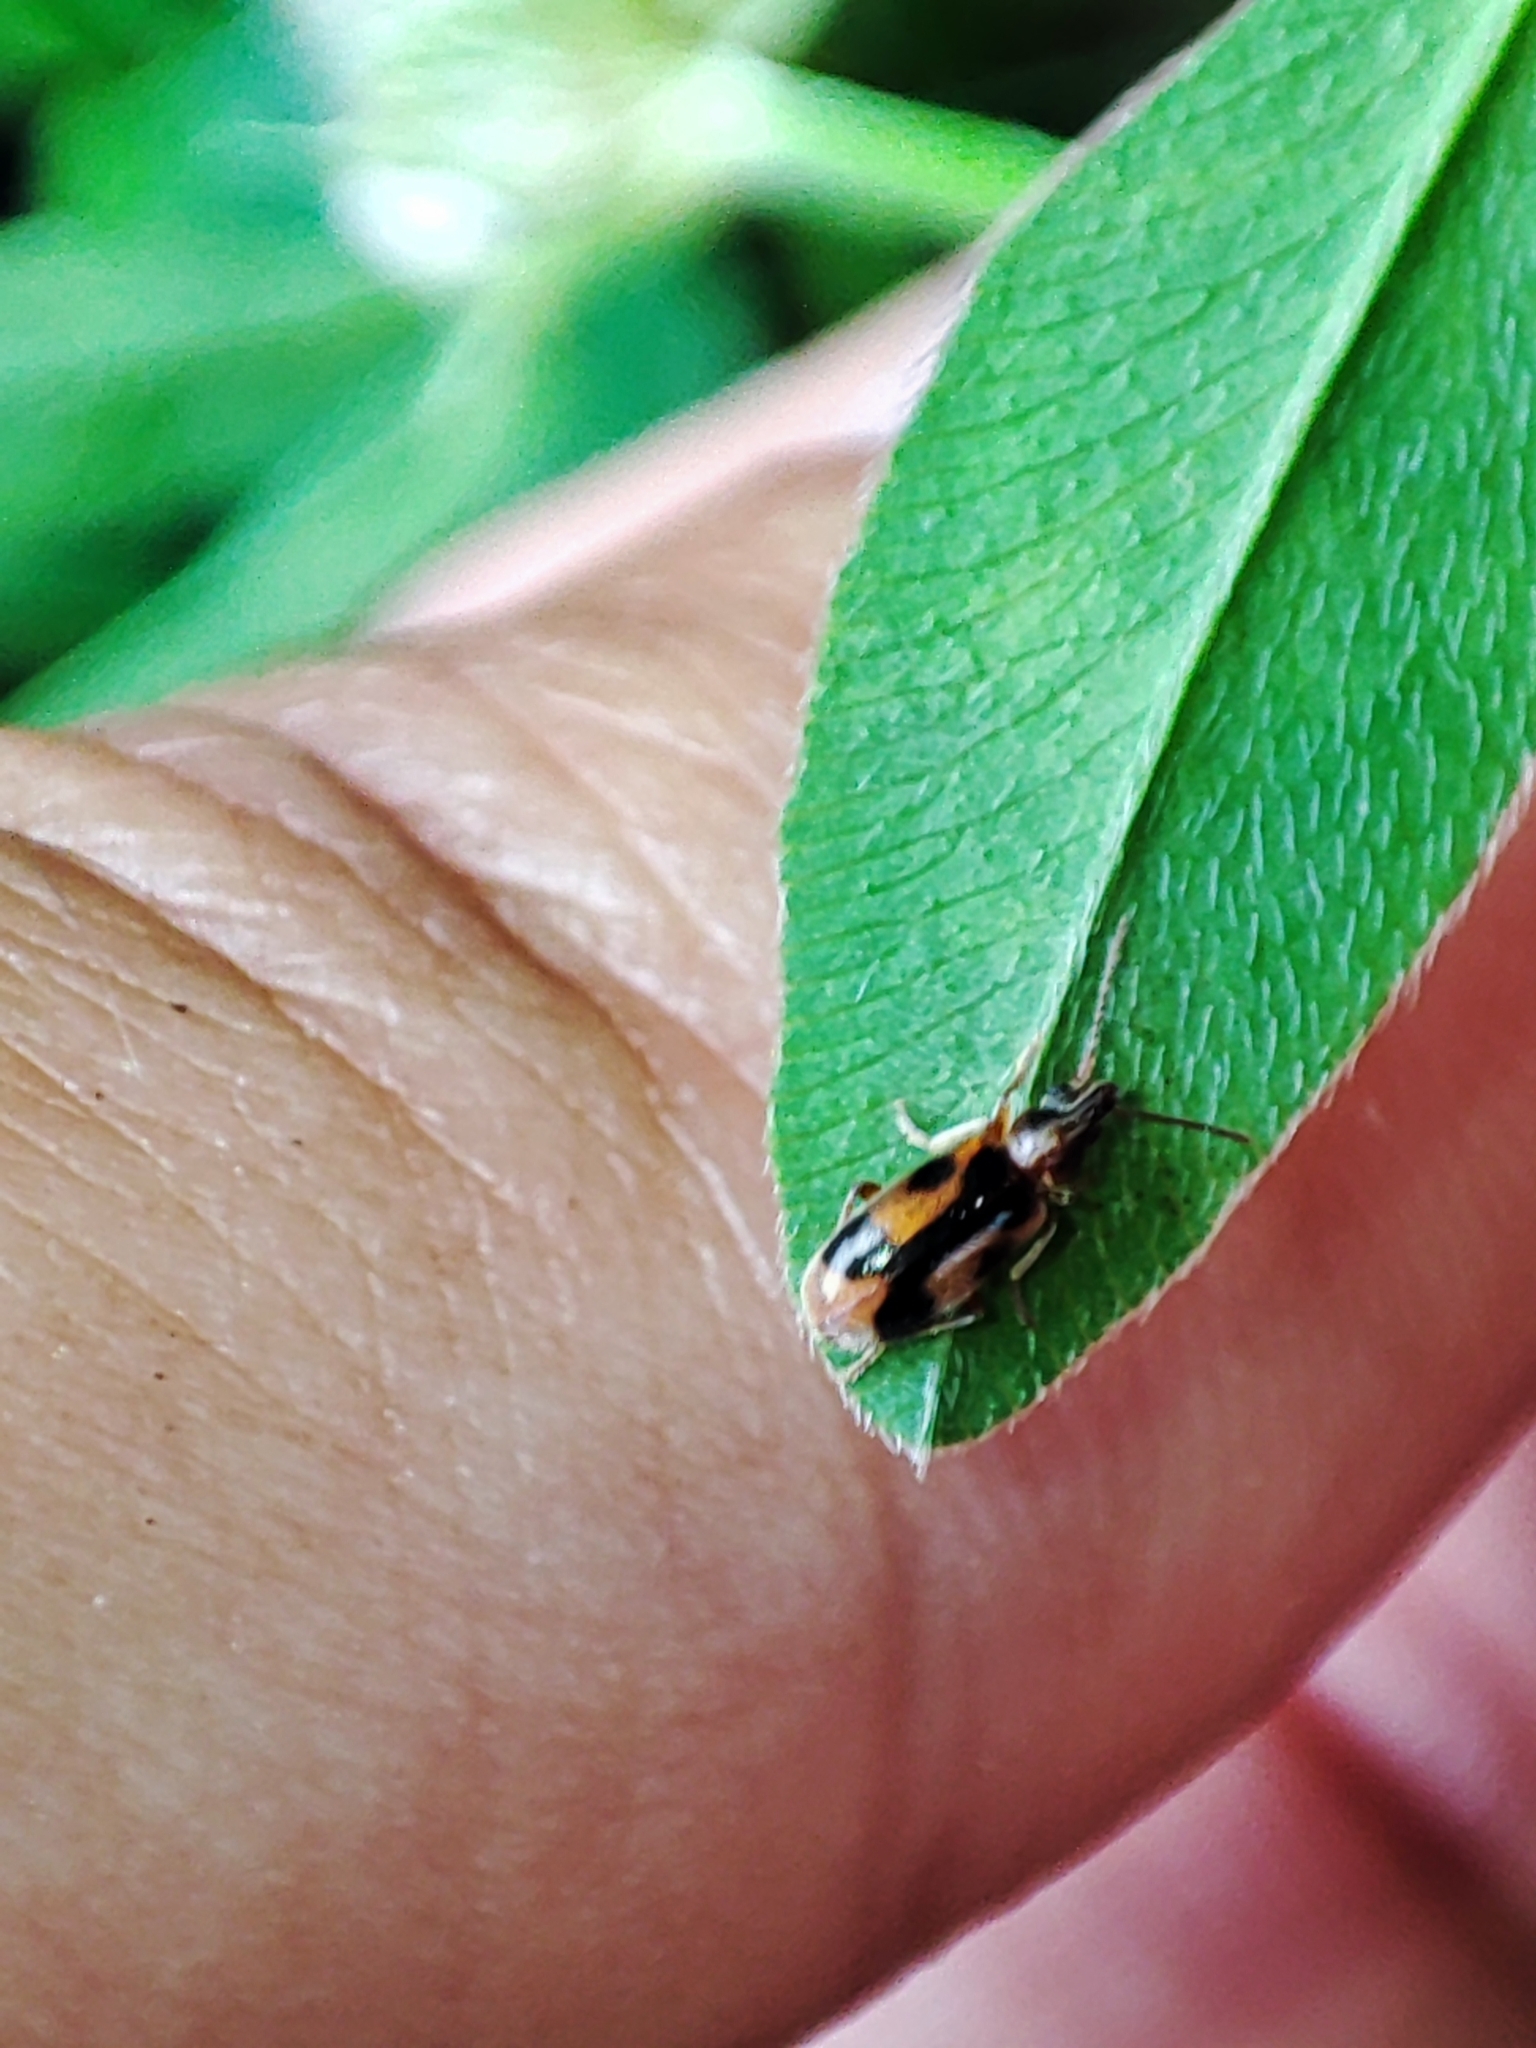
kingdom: Animalia
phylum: Arthropoda
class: Insecta
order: Coleoptera
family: Anthicidae
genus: Notoxus
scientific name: Notoxus monoceros
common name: Monoceros beetle
